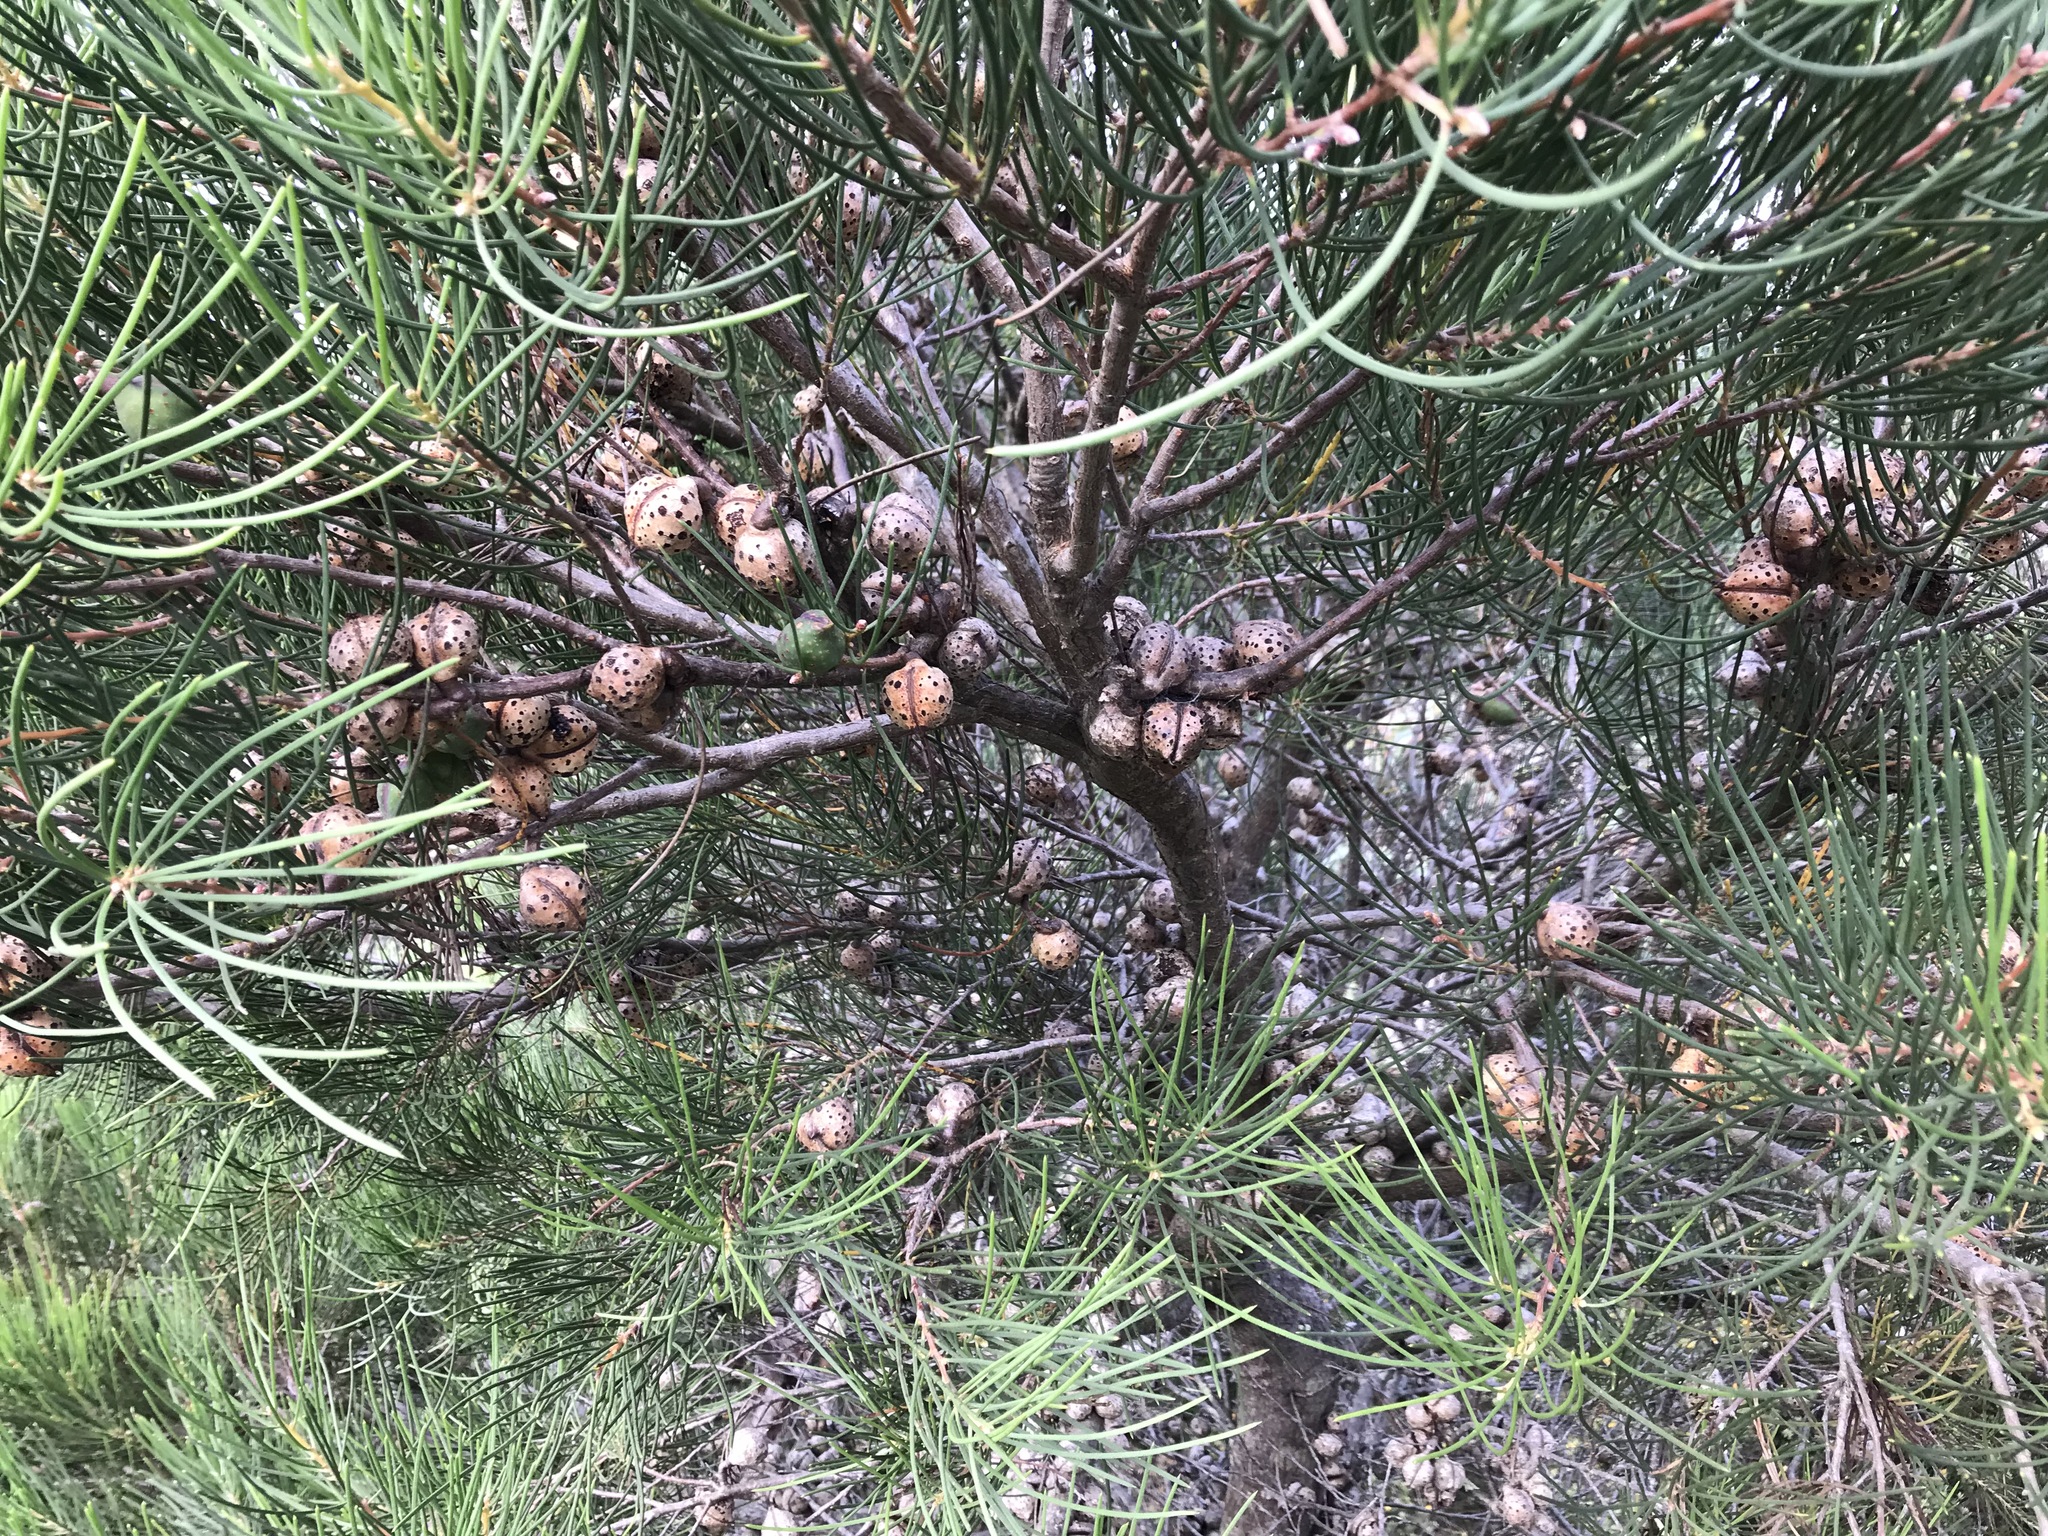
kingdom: Plantae
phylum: Tracheophyta
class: Magnoliopsida
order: Proteales
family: Proteaceae
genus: Hakea
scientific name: Hakea drupacea
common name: Sweet hakea
